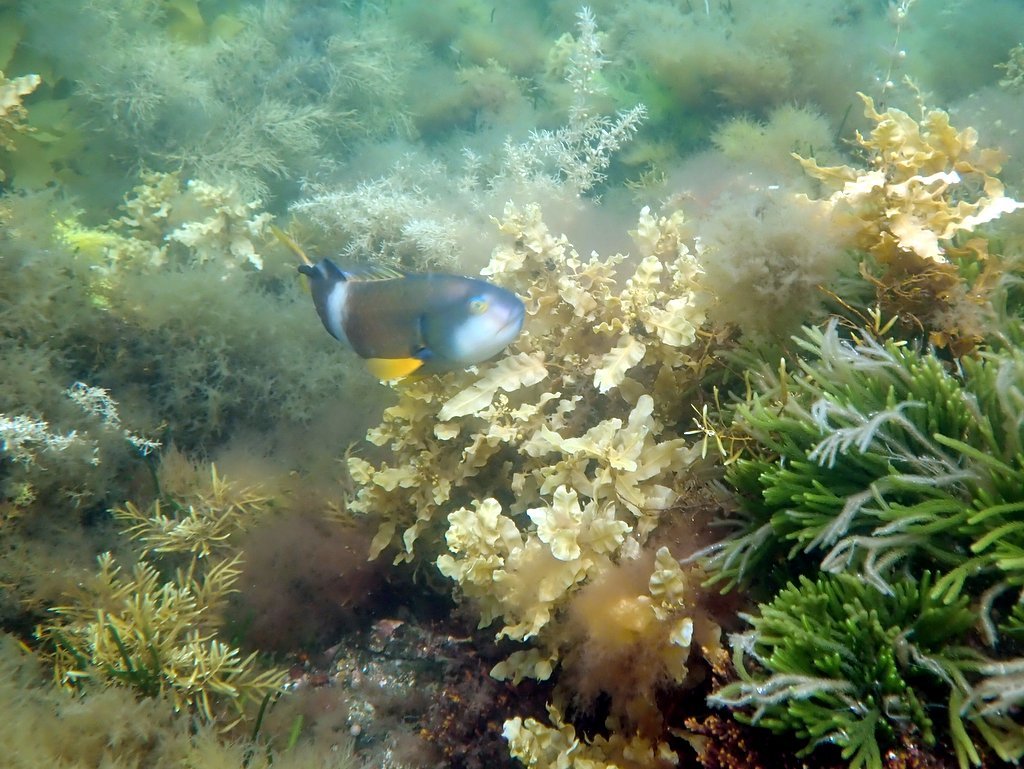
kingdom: Animalia
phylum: Chordata
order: Perciformes
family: Labridae
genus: Notolabrus
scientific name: Notolabrus tetricus
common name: Blue-throated parrotfish
